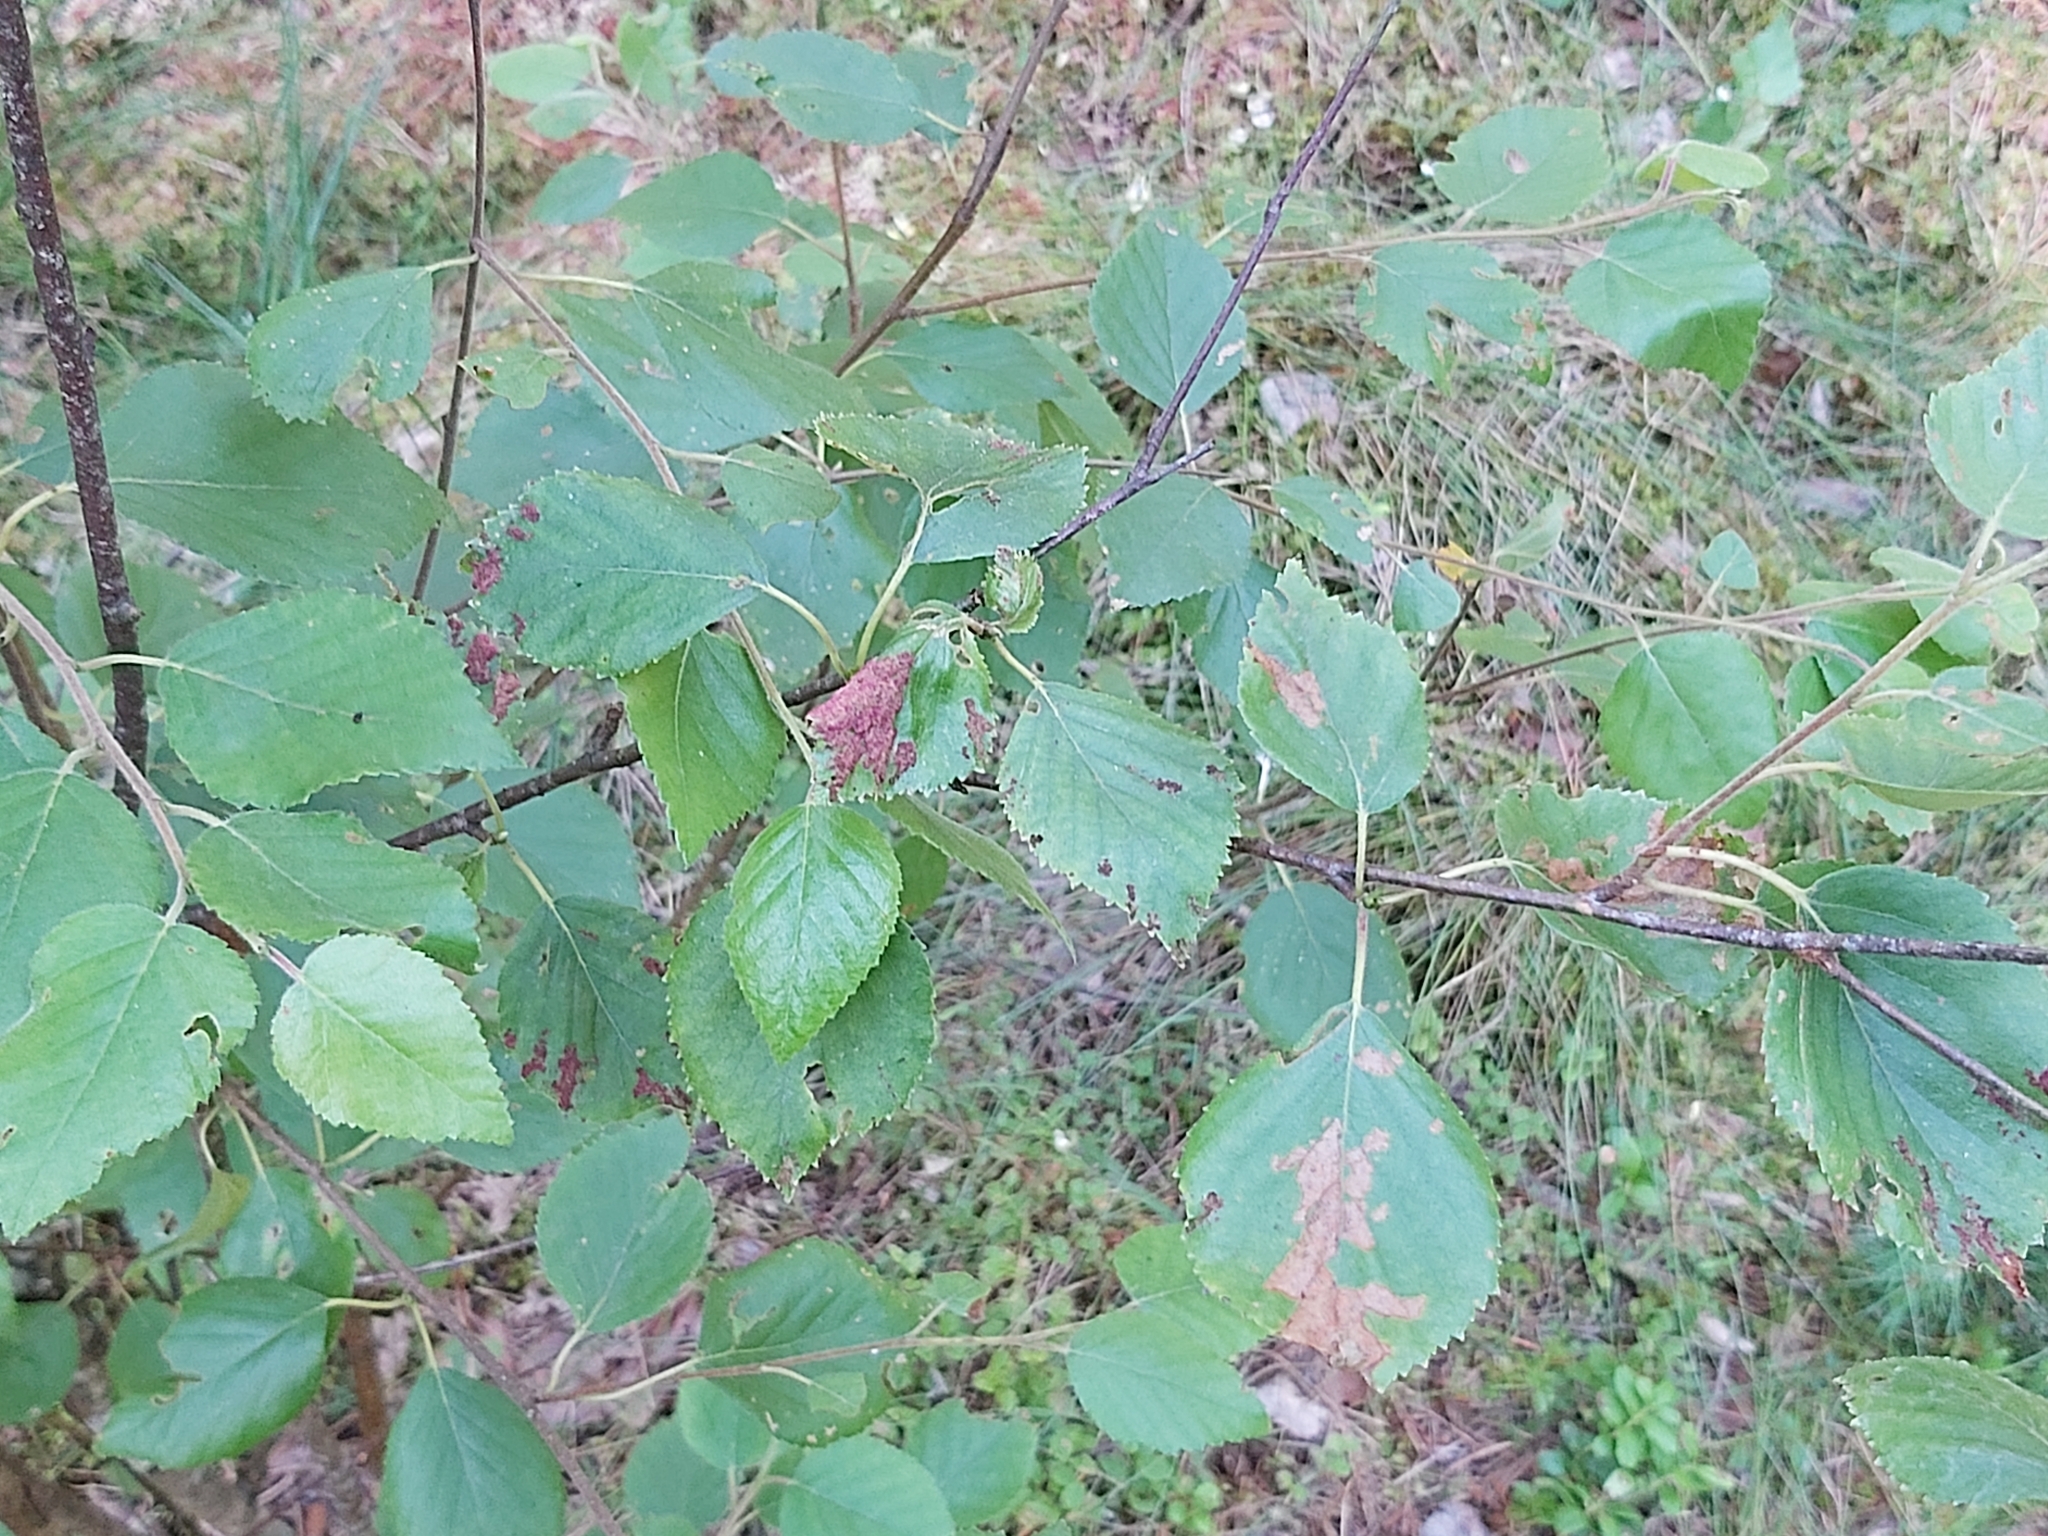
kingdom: Animalia
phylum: Arthropoda
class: Arachnida
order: Trombidiformes
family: Eriophyidae
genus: Acalitus
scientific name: Acalitus longisetosus
